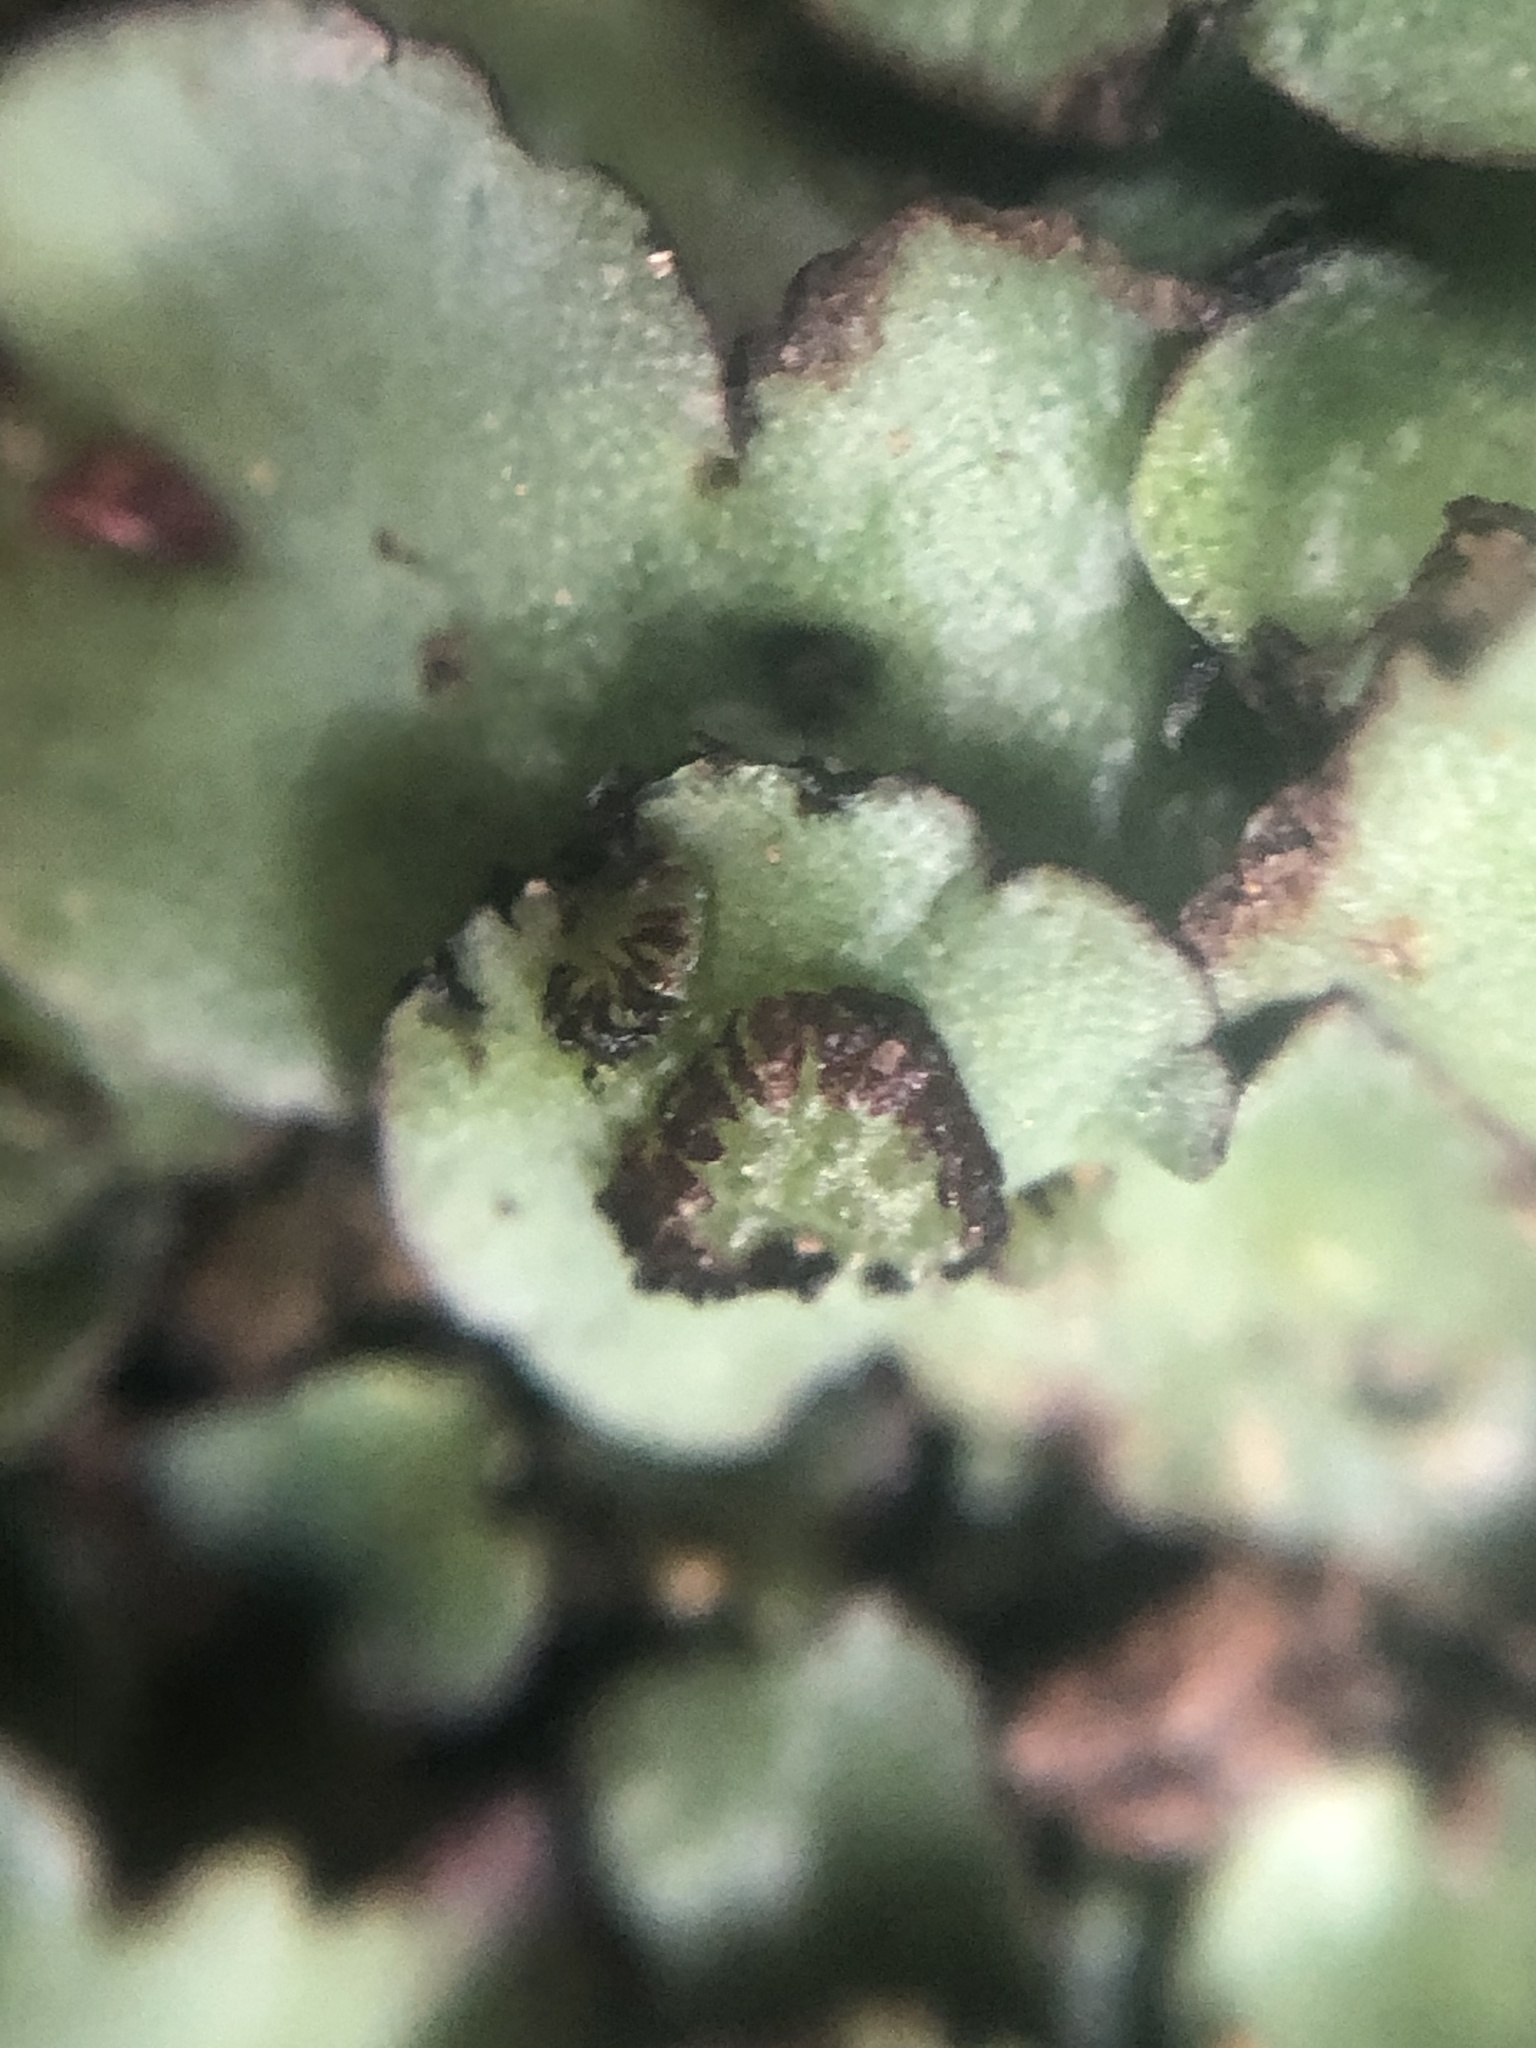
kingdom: Plantae
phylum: Marchantiophyta
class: Marchantiopsida
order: Marchantiales
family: Aytoniaceae
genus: Plagiochasma
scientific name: Plagiochasma rupestre
